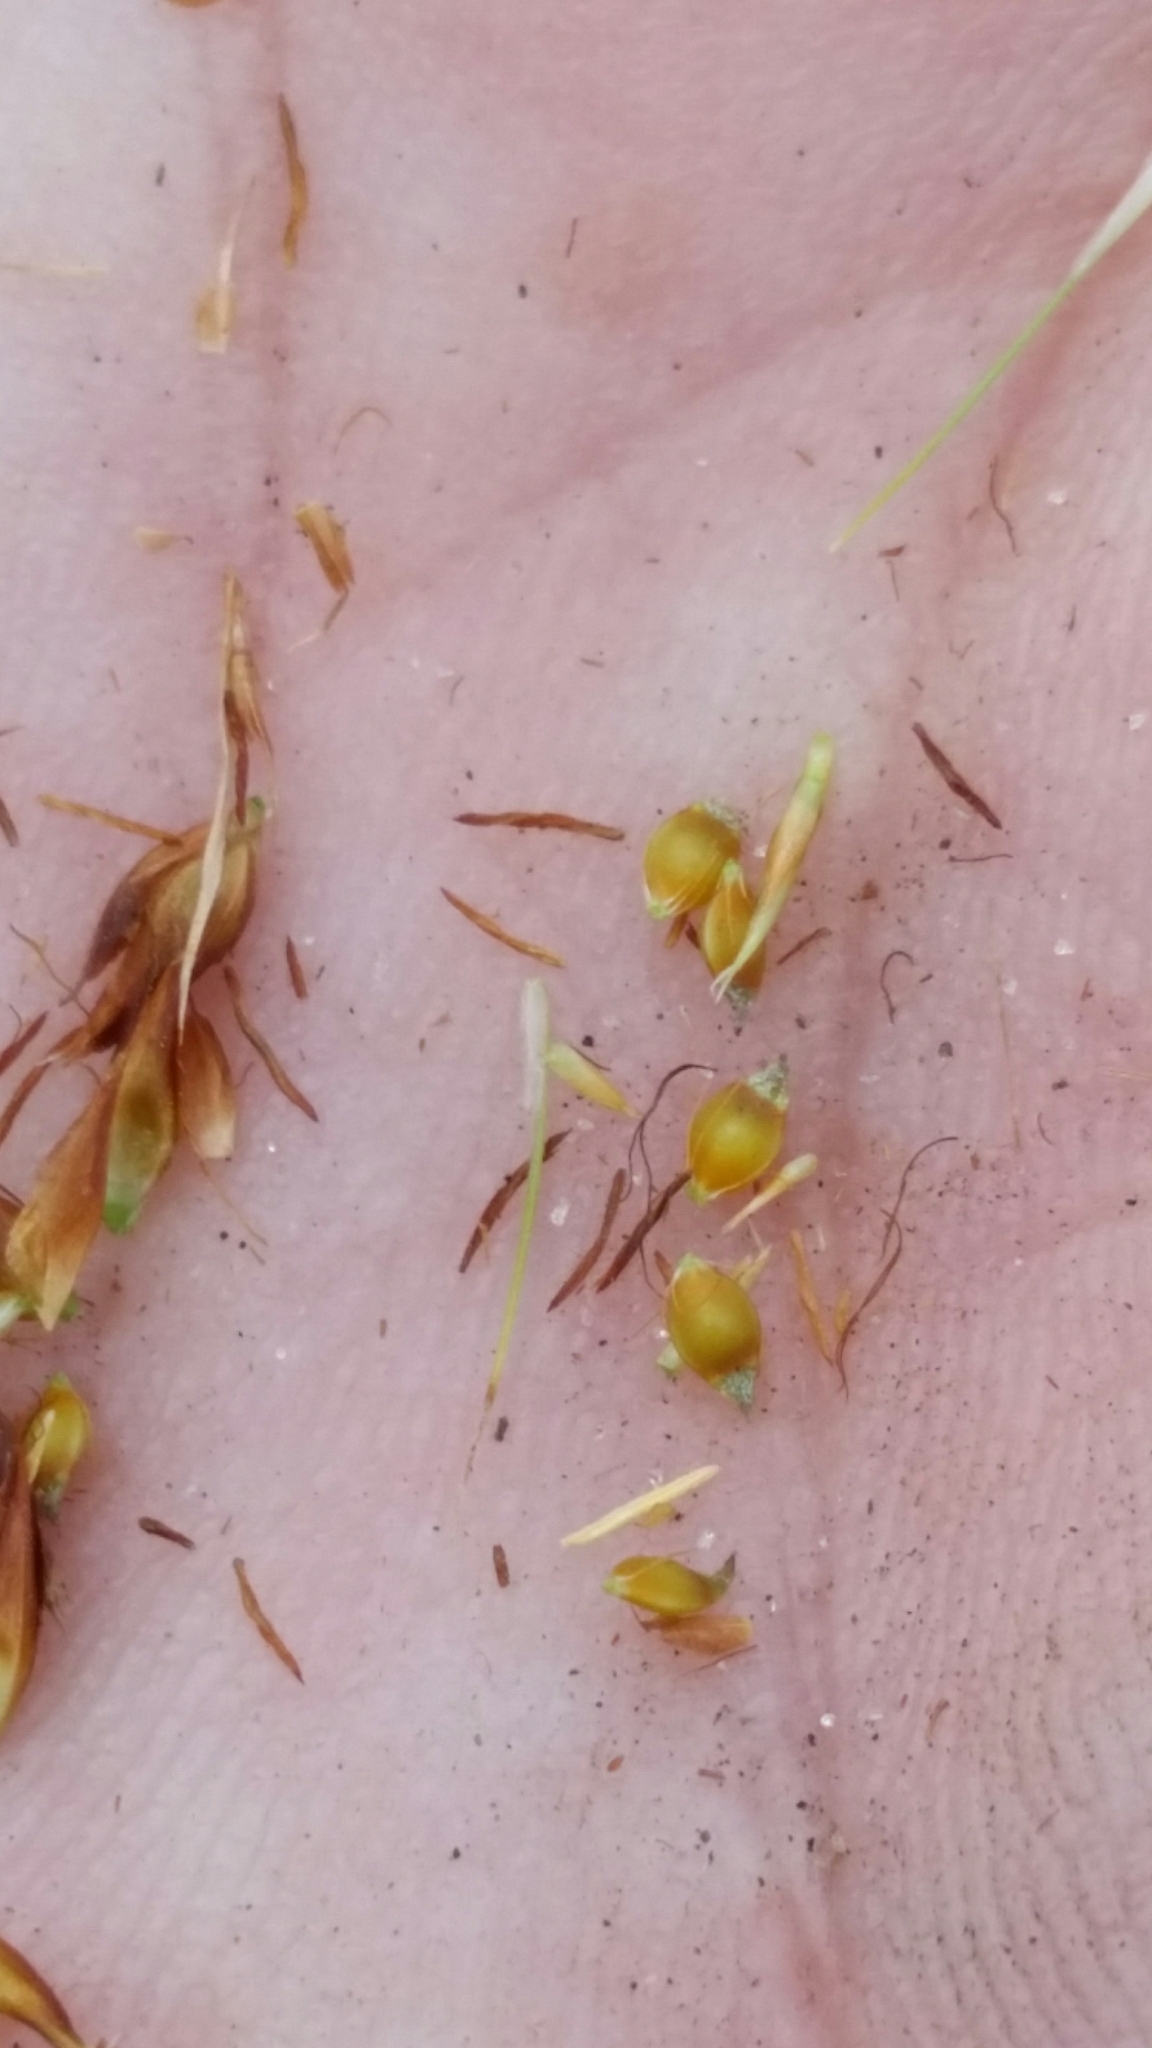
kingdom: Plantae
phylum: Tracheophyta
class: Liliopsida
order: Poales
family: Cyperaceae
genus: Rhynchospora
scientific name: Rhynchospora fascicularis
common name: Fascicled beak sedge
